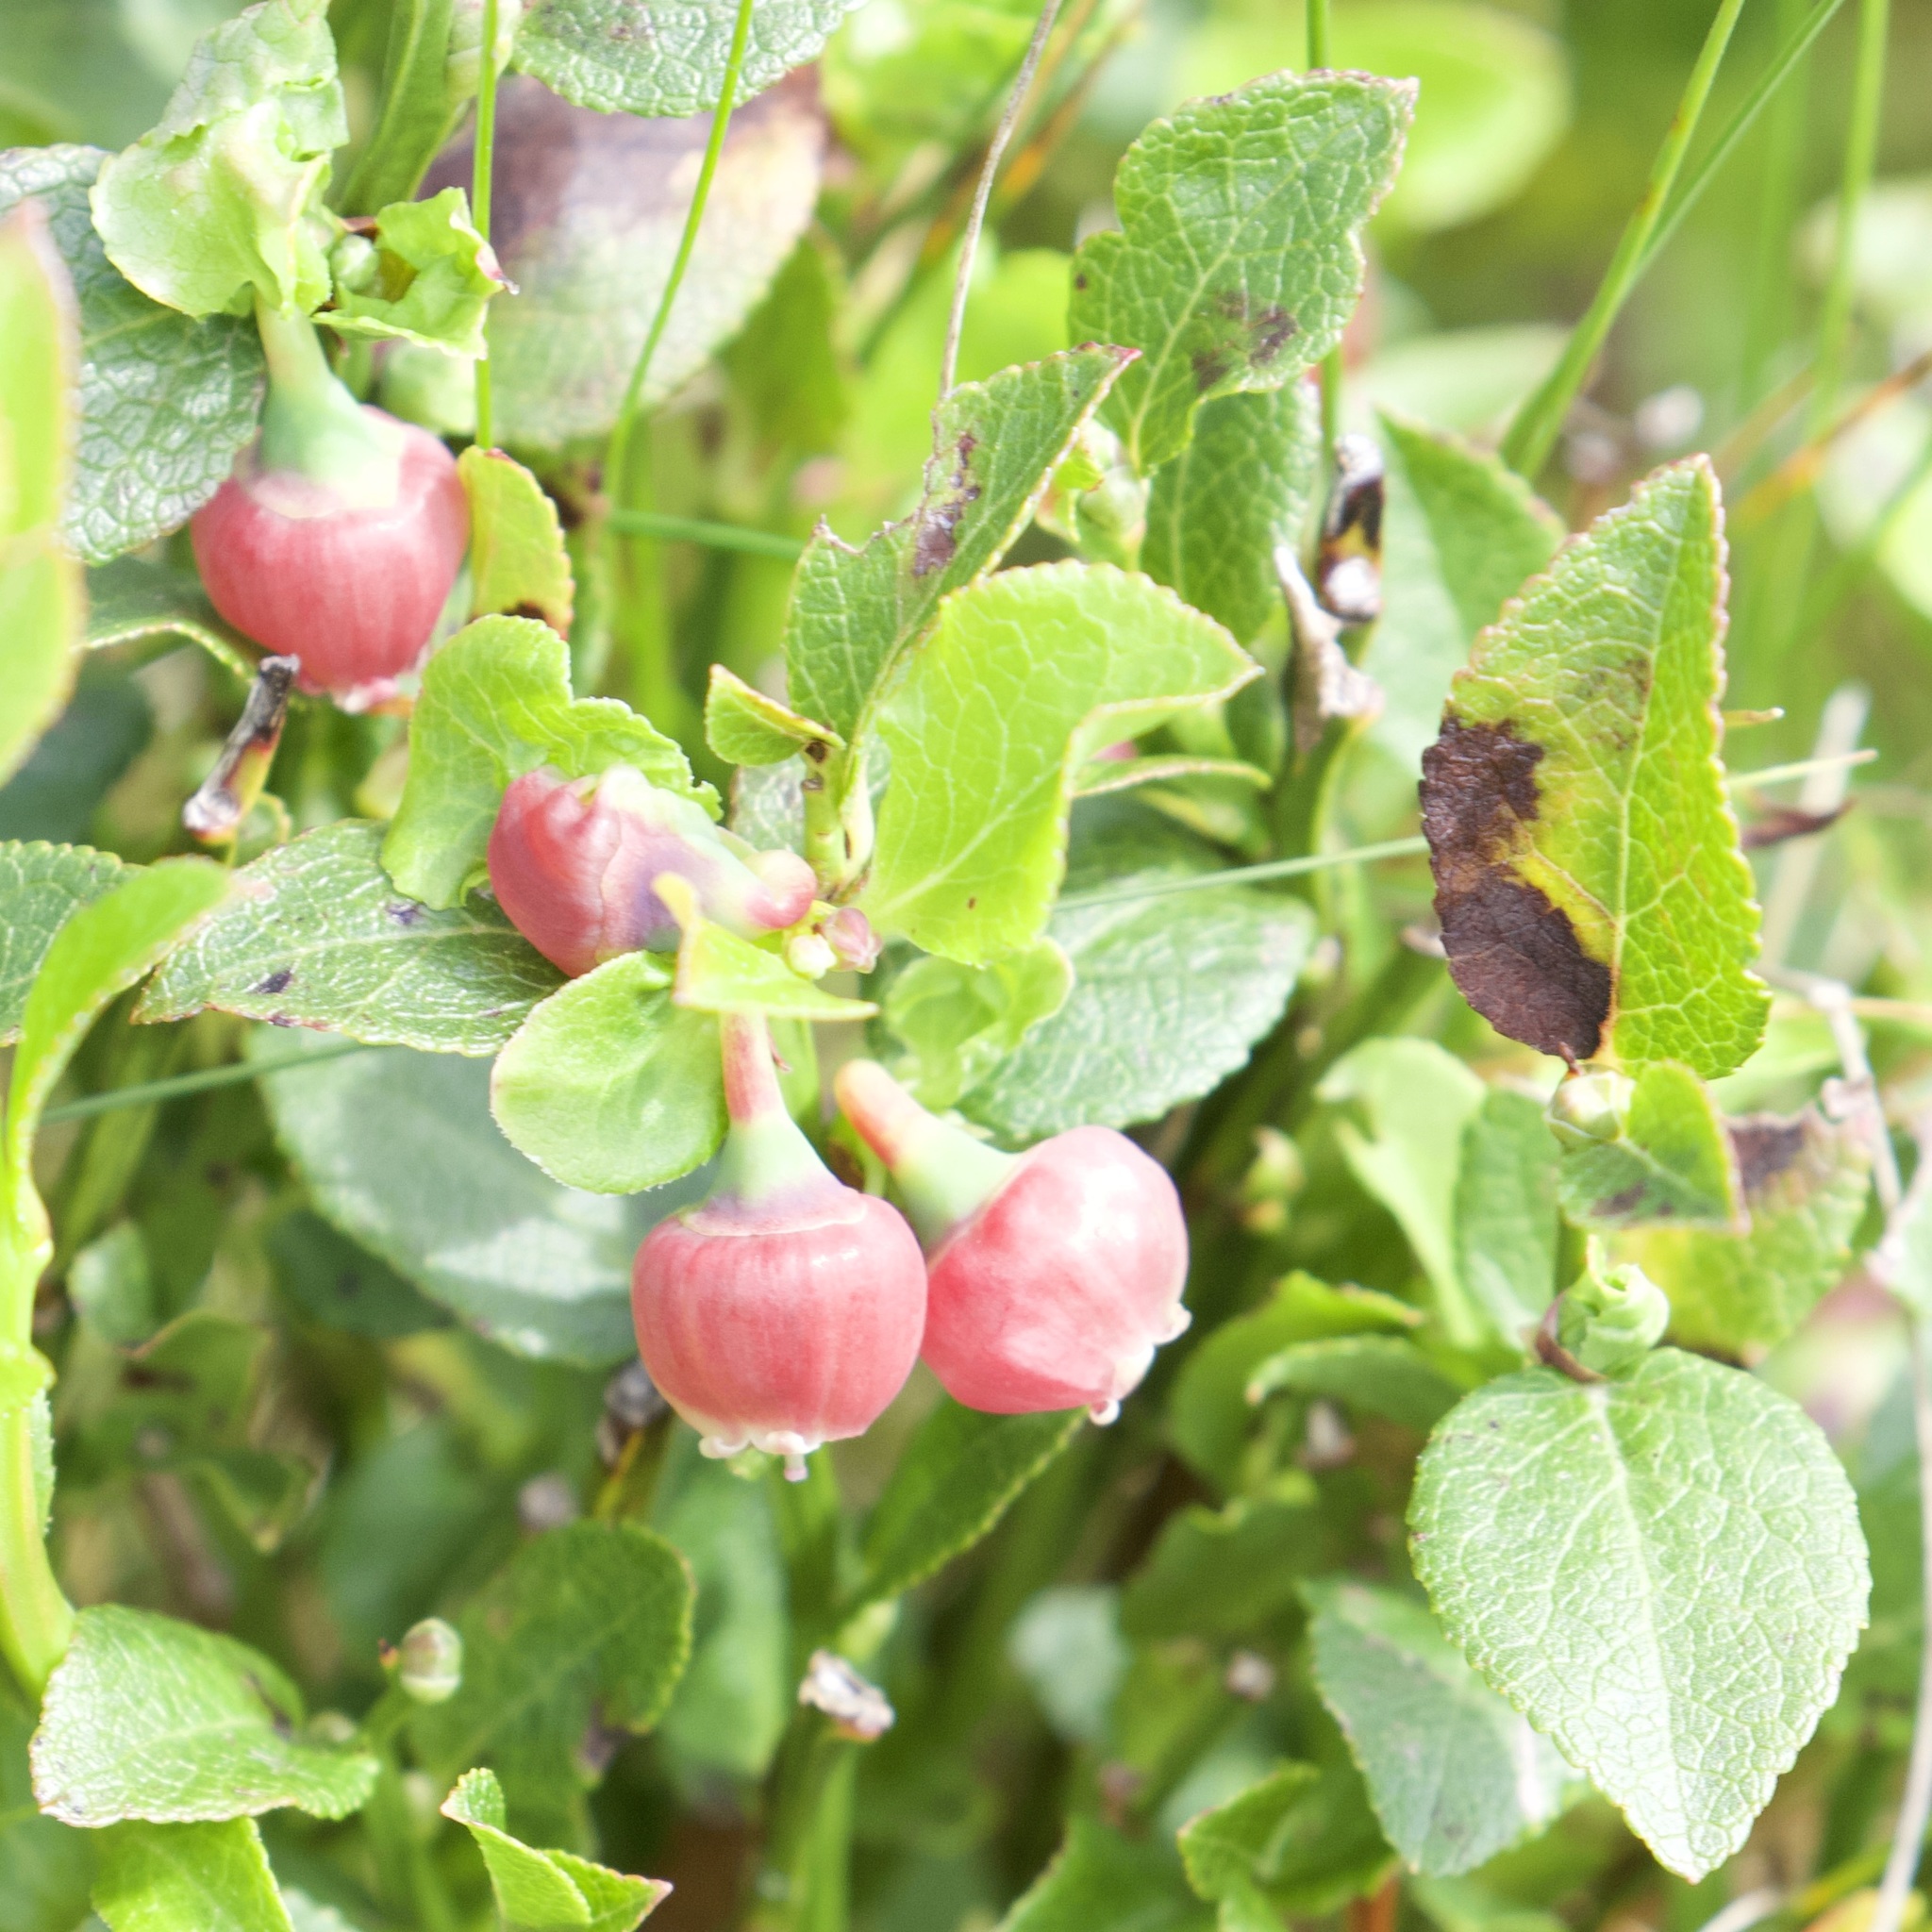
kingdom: Plantae
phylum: Tracheophyta
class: Magnoliopsida
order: Ericales
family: Ericaceae
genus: Vaccinium
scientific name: Vaccinium myrtillus
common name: Bilberry
